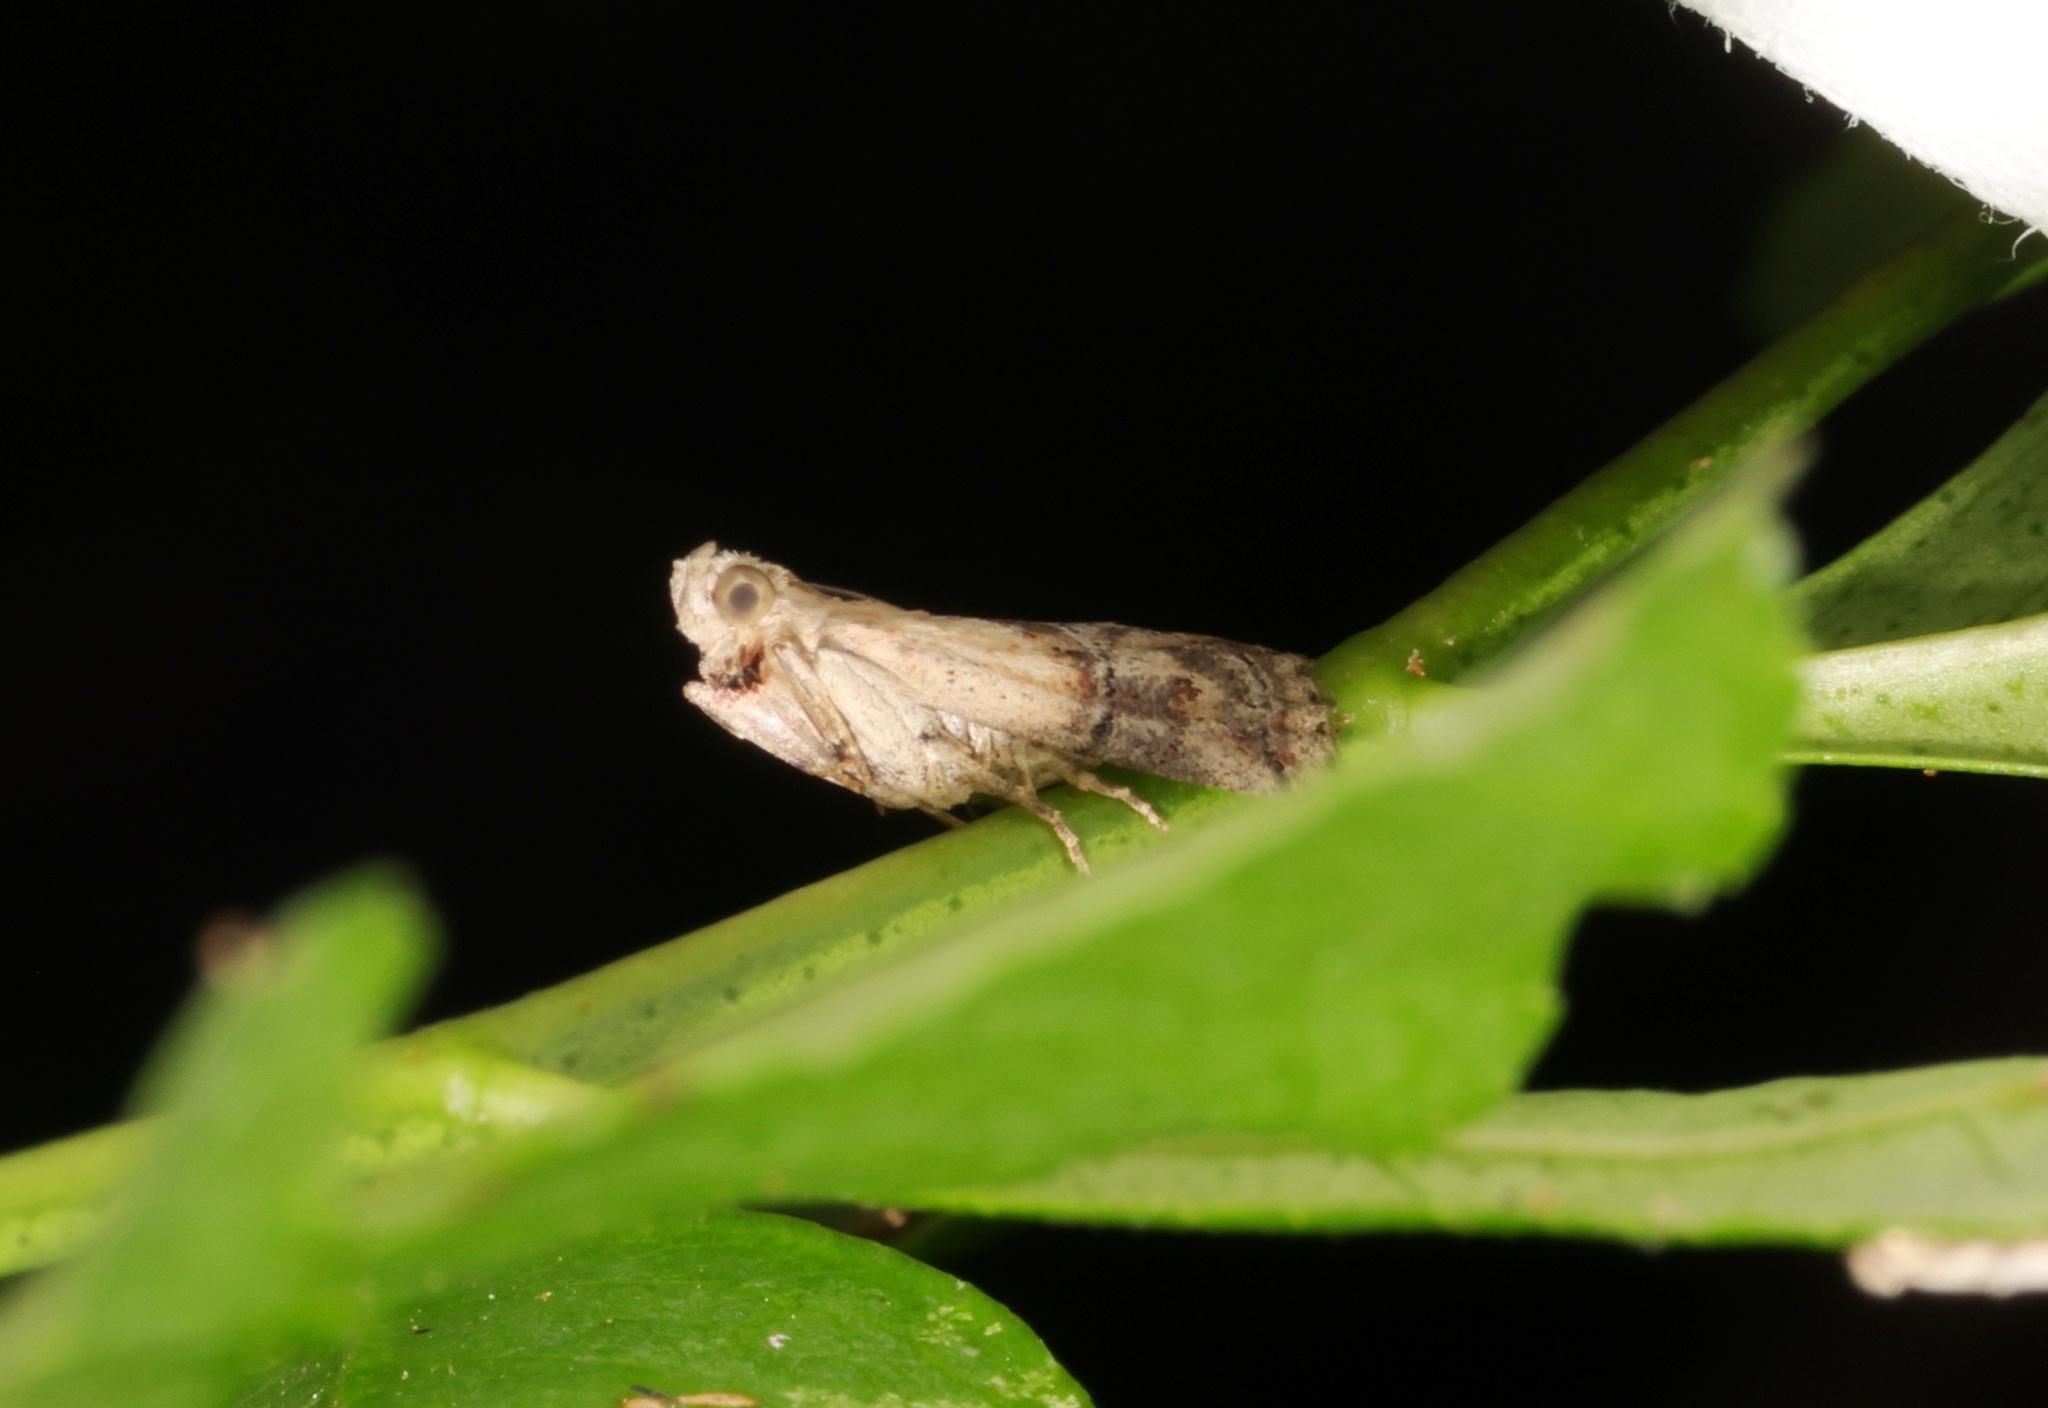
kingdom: Animalia
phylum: Arthropoda
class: Insecta
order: Lepidoptera
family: Pyralidae
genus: Nephopterix
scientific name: Nephopterix ochribasalis
